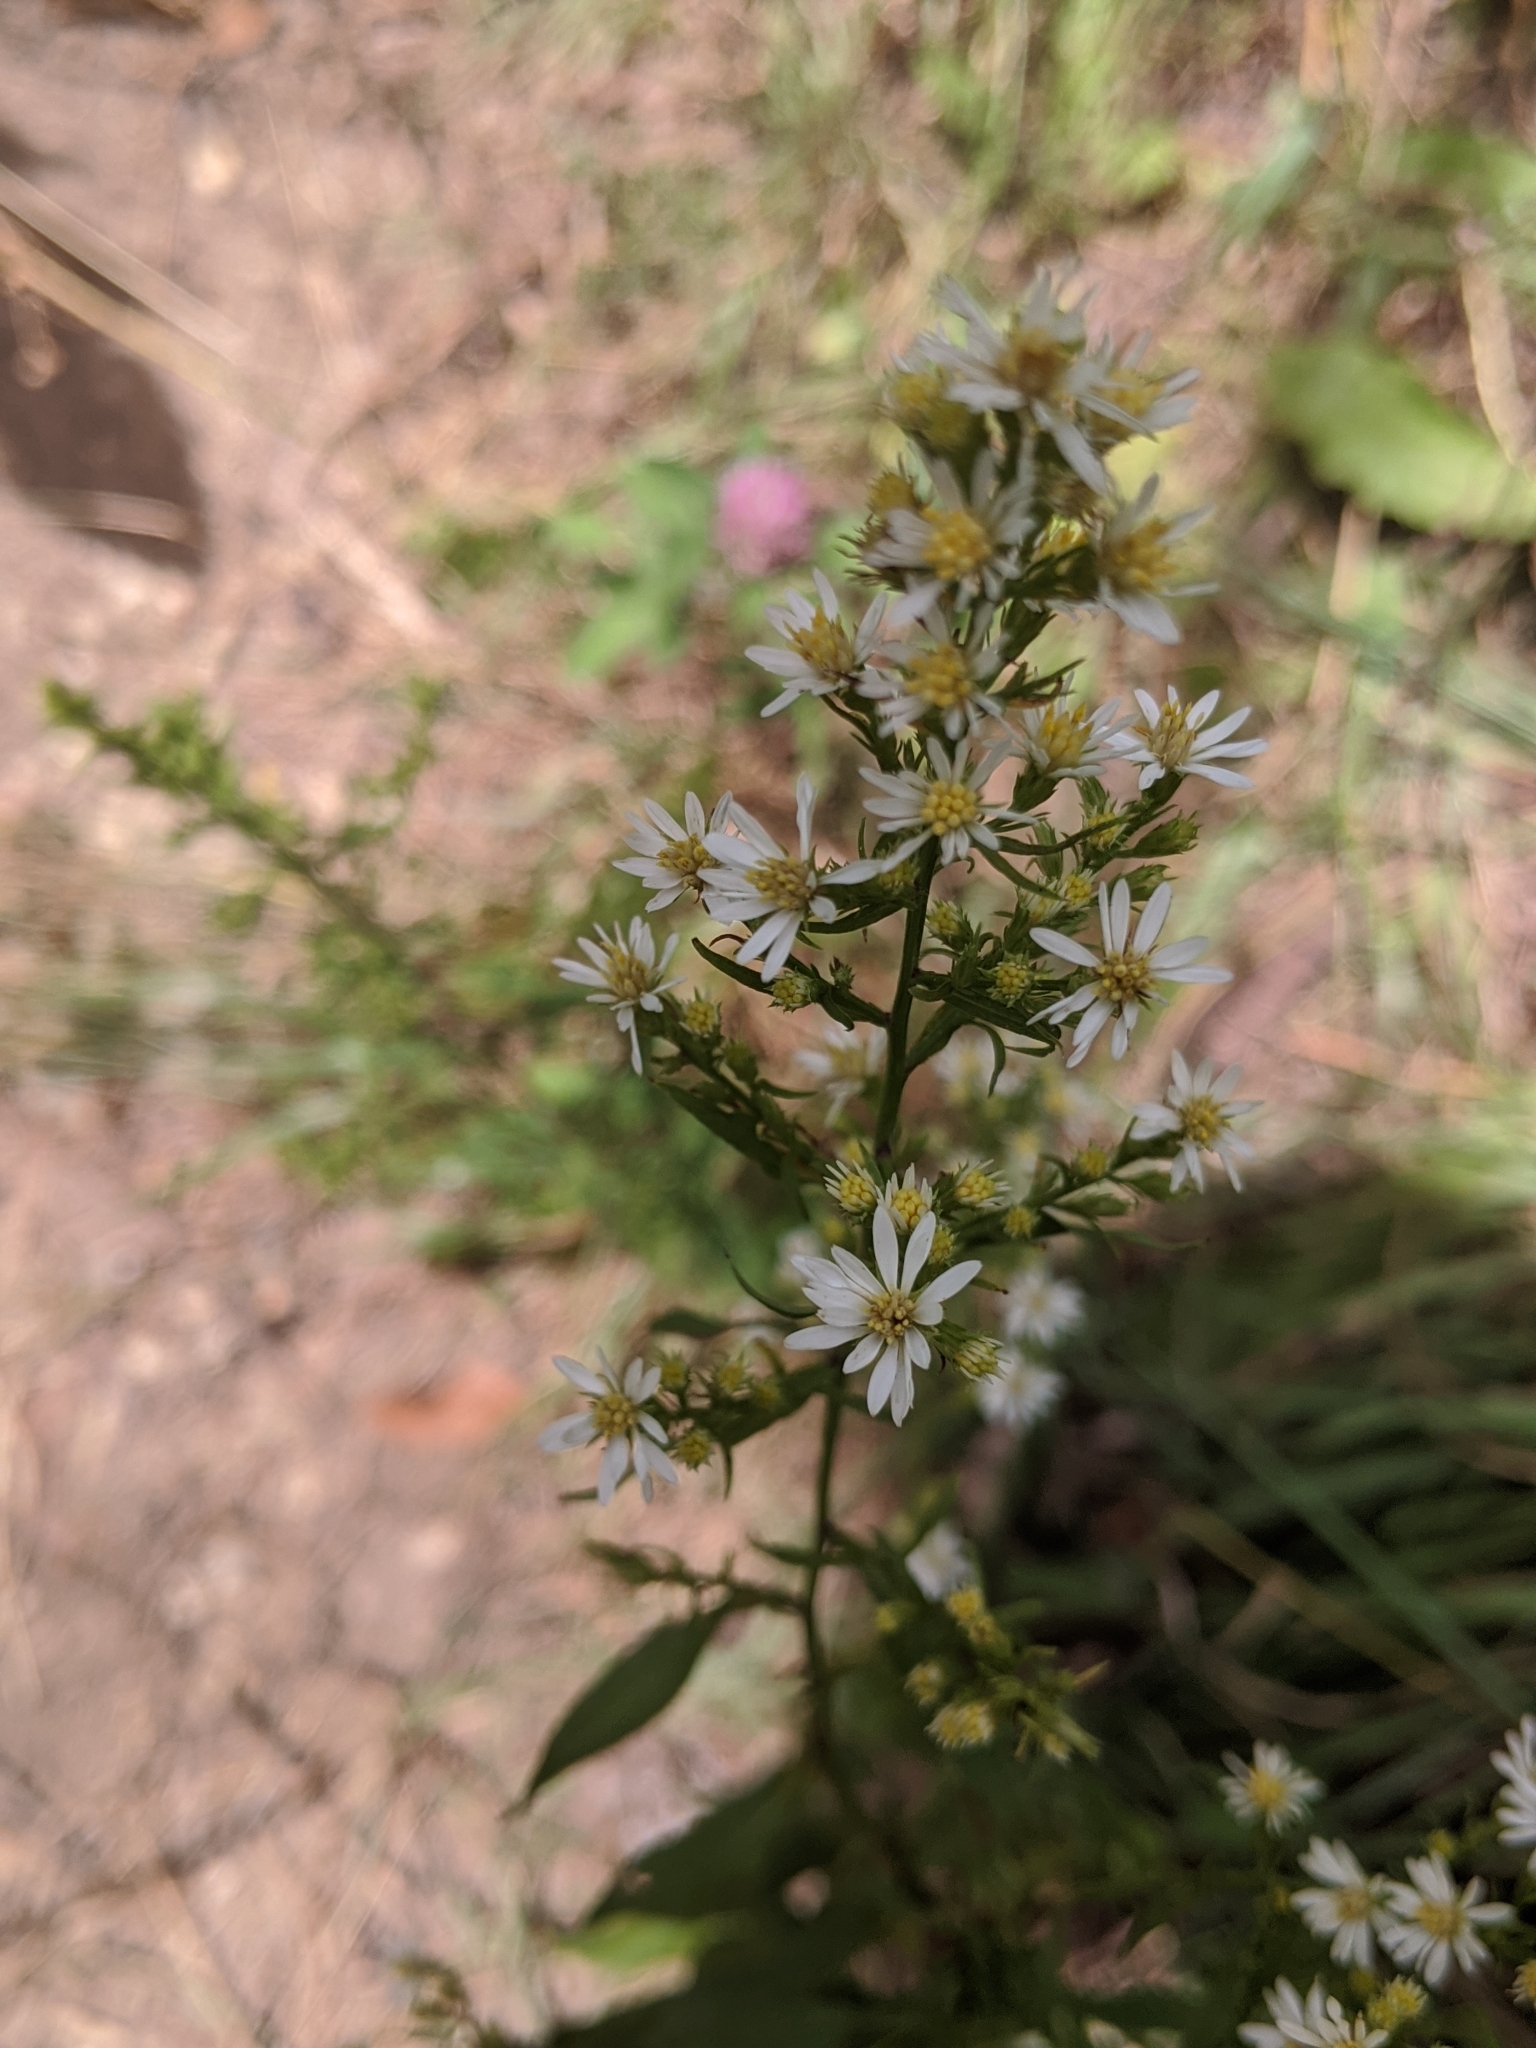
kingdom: Plantae
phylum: Tracheophyta
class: Magnoliopsida
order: Asterales
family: Asteraceae
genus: Symphyotrichum
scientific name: Symphyotrichum urophyllum
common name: Arrow-leaved aster
